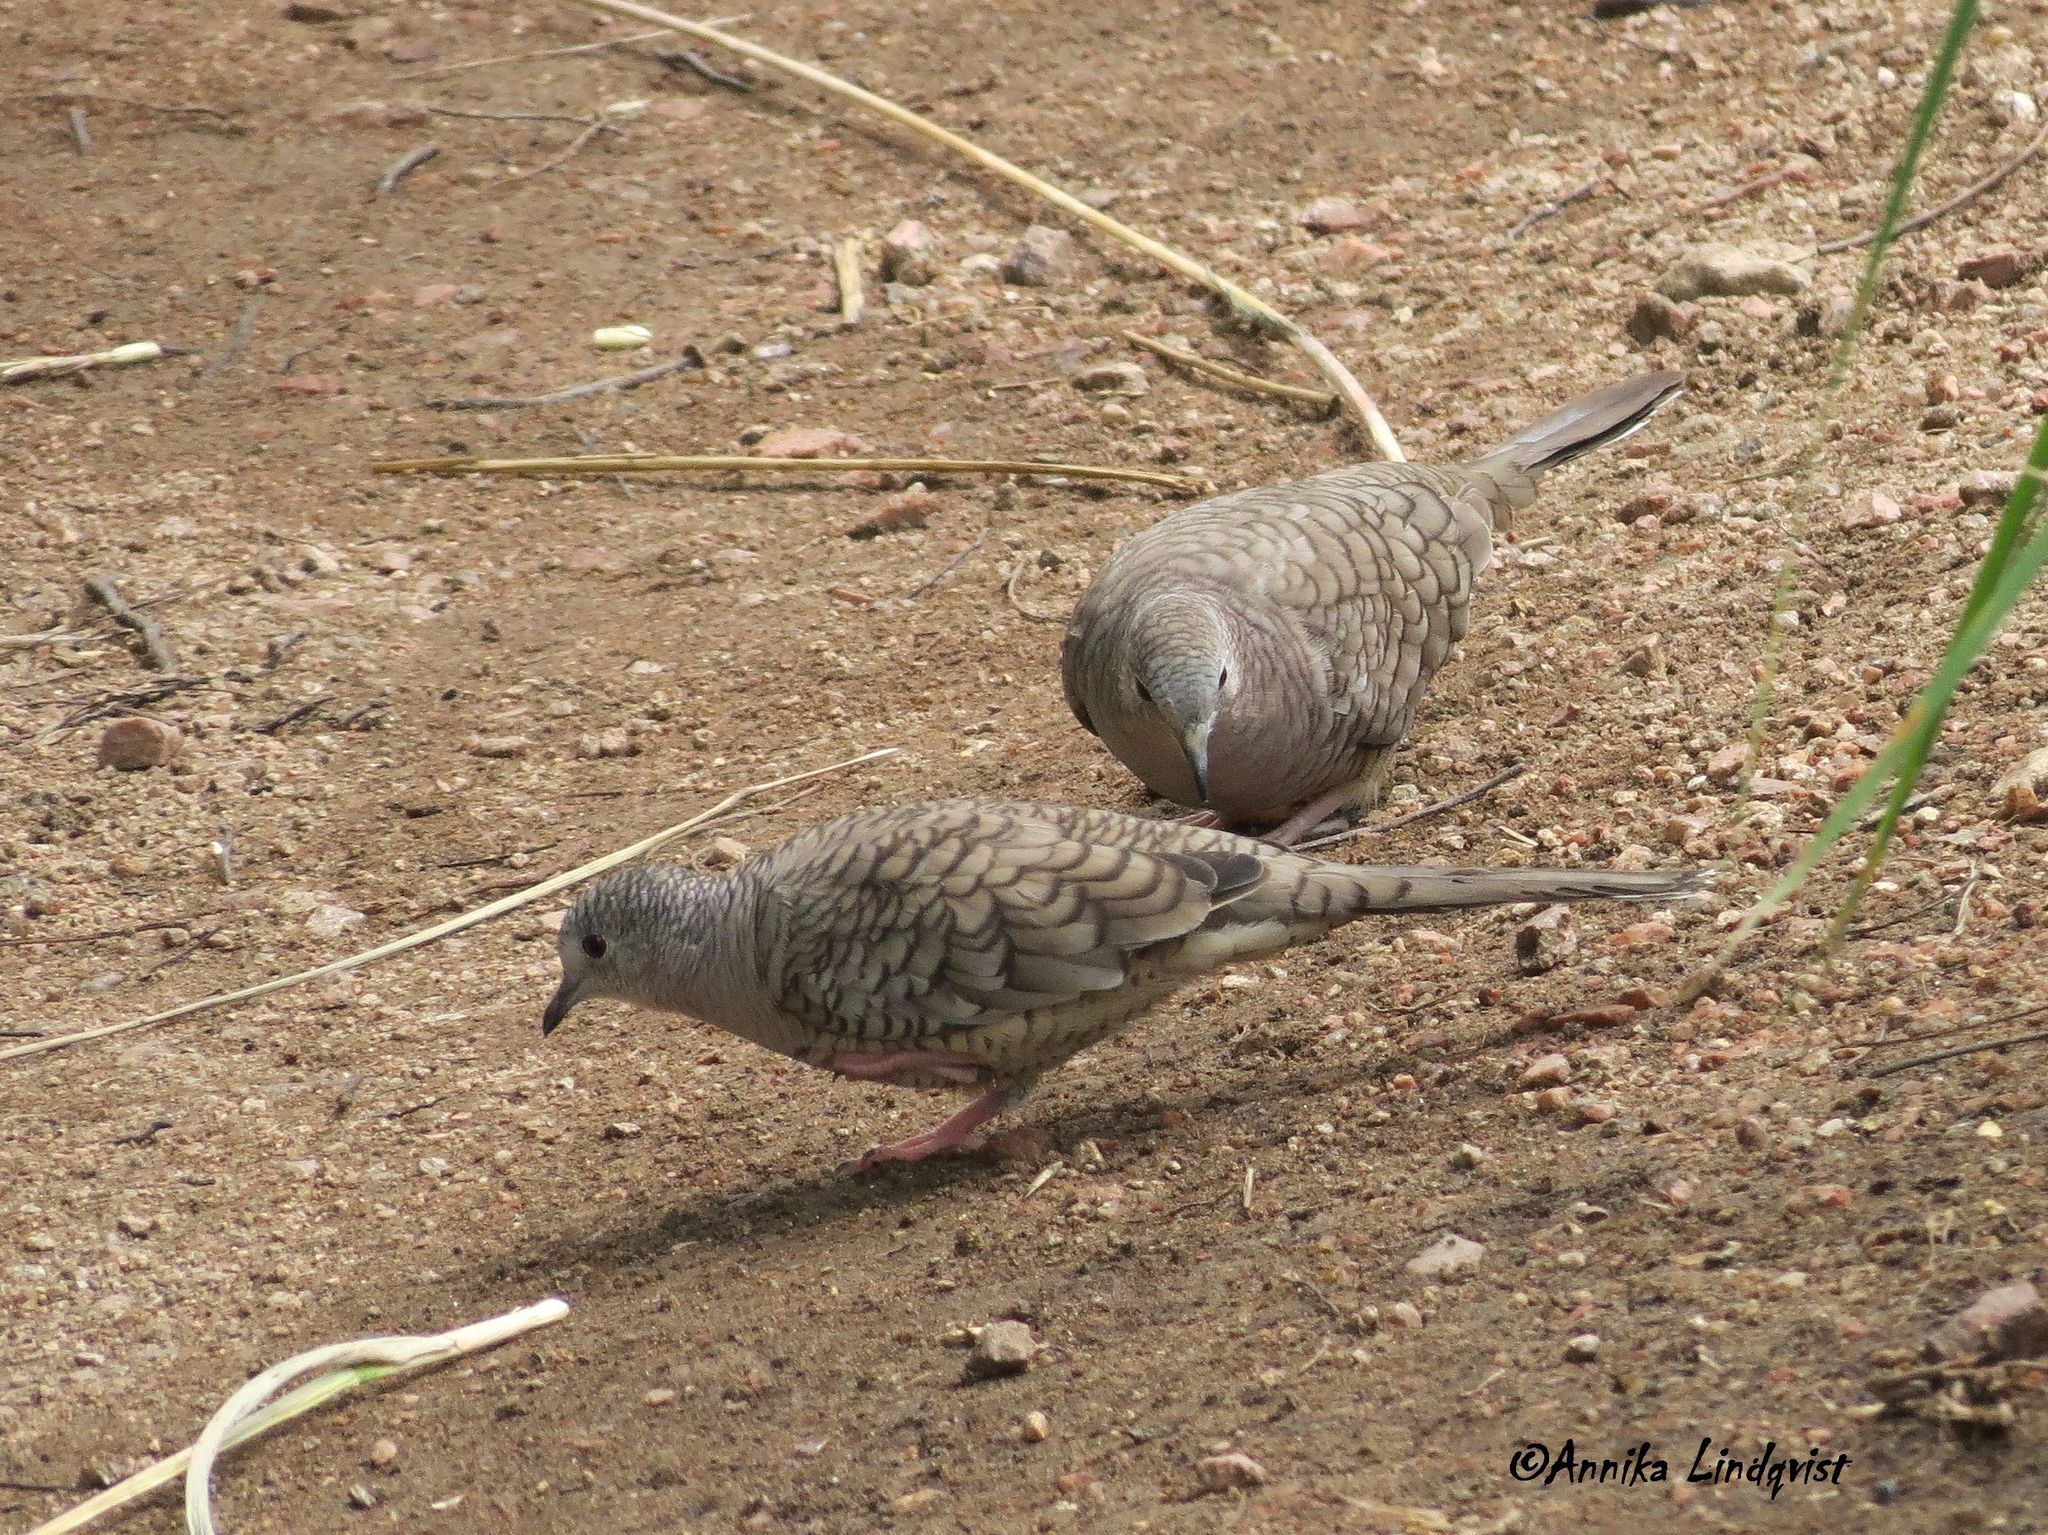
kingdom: Animalia
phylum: Chordata
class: Aves
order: Columbiformes
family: Columbidae
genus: Columbina
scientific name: Columbina inca
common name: Inca dove
